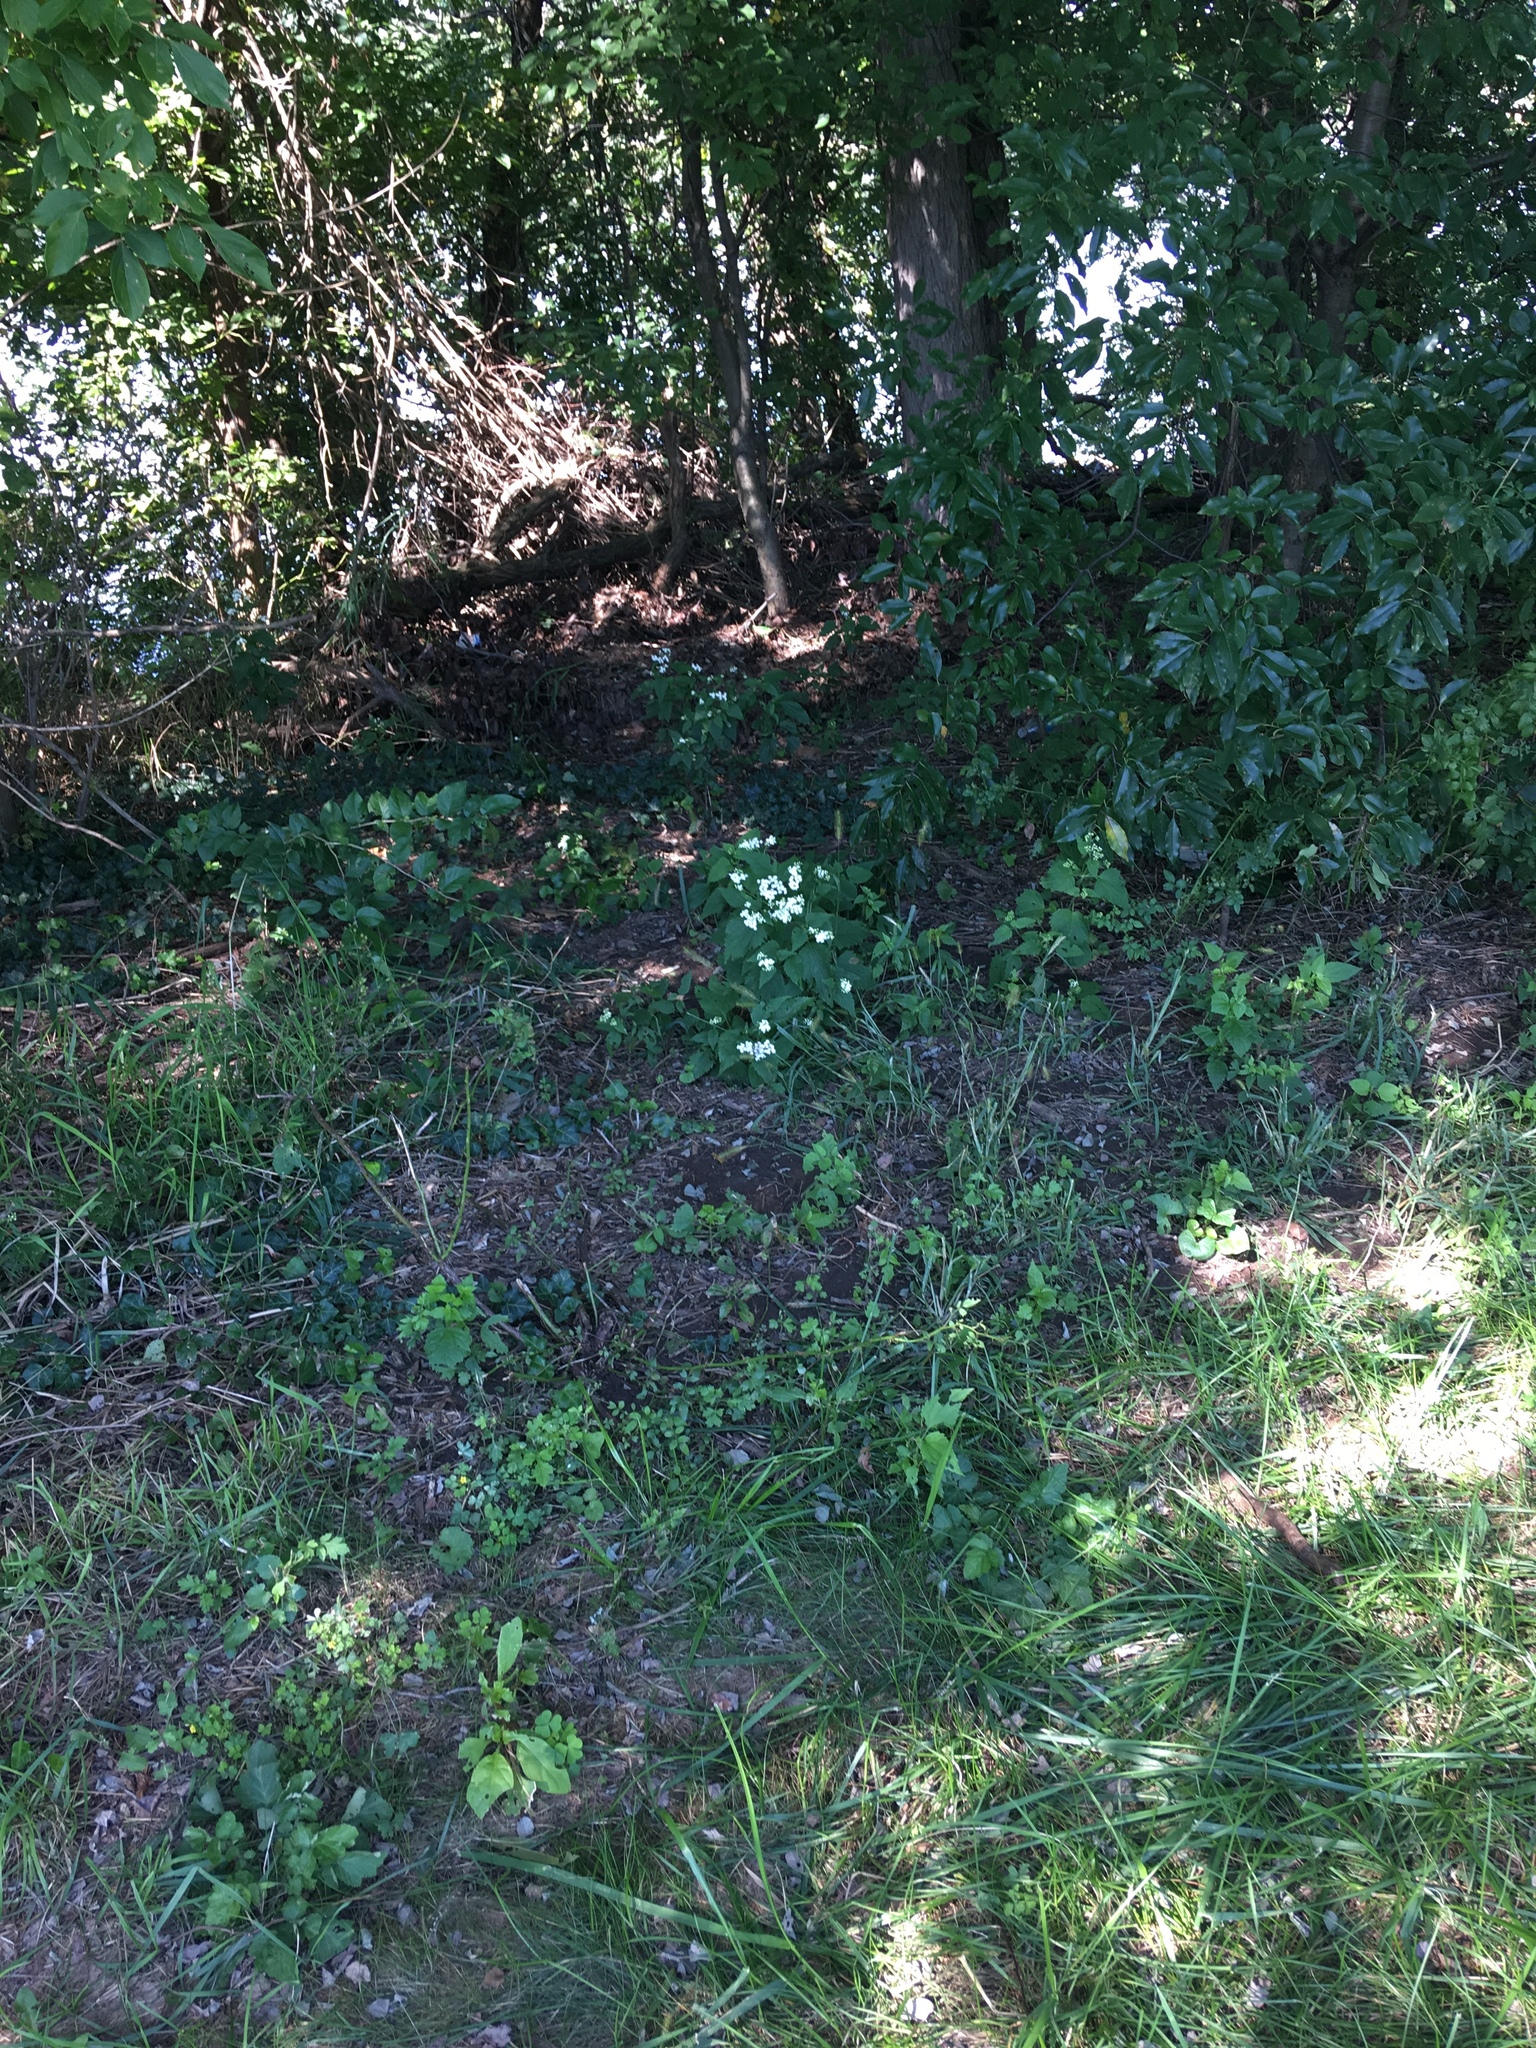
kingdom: Plantae
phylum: Tracheophyta
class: Magnoliopsida
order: Asterales
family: Asteraceae
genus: Ageratina
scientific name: Ageratina altissima
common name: White snakeroot
